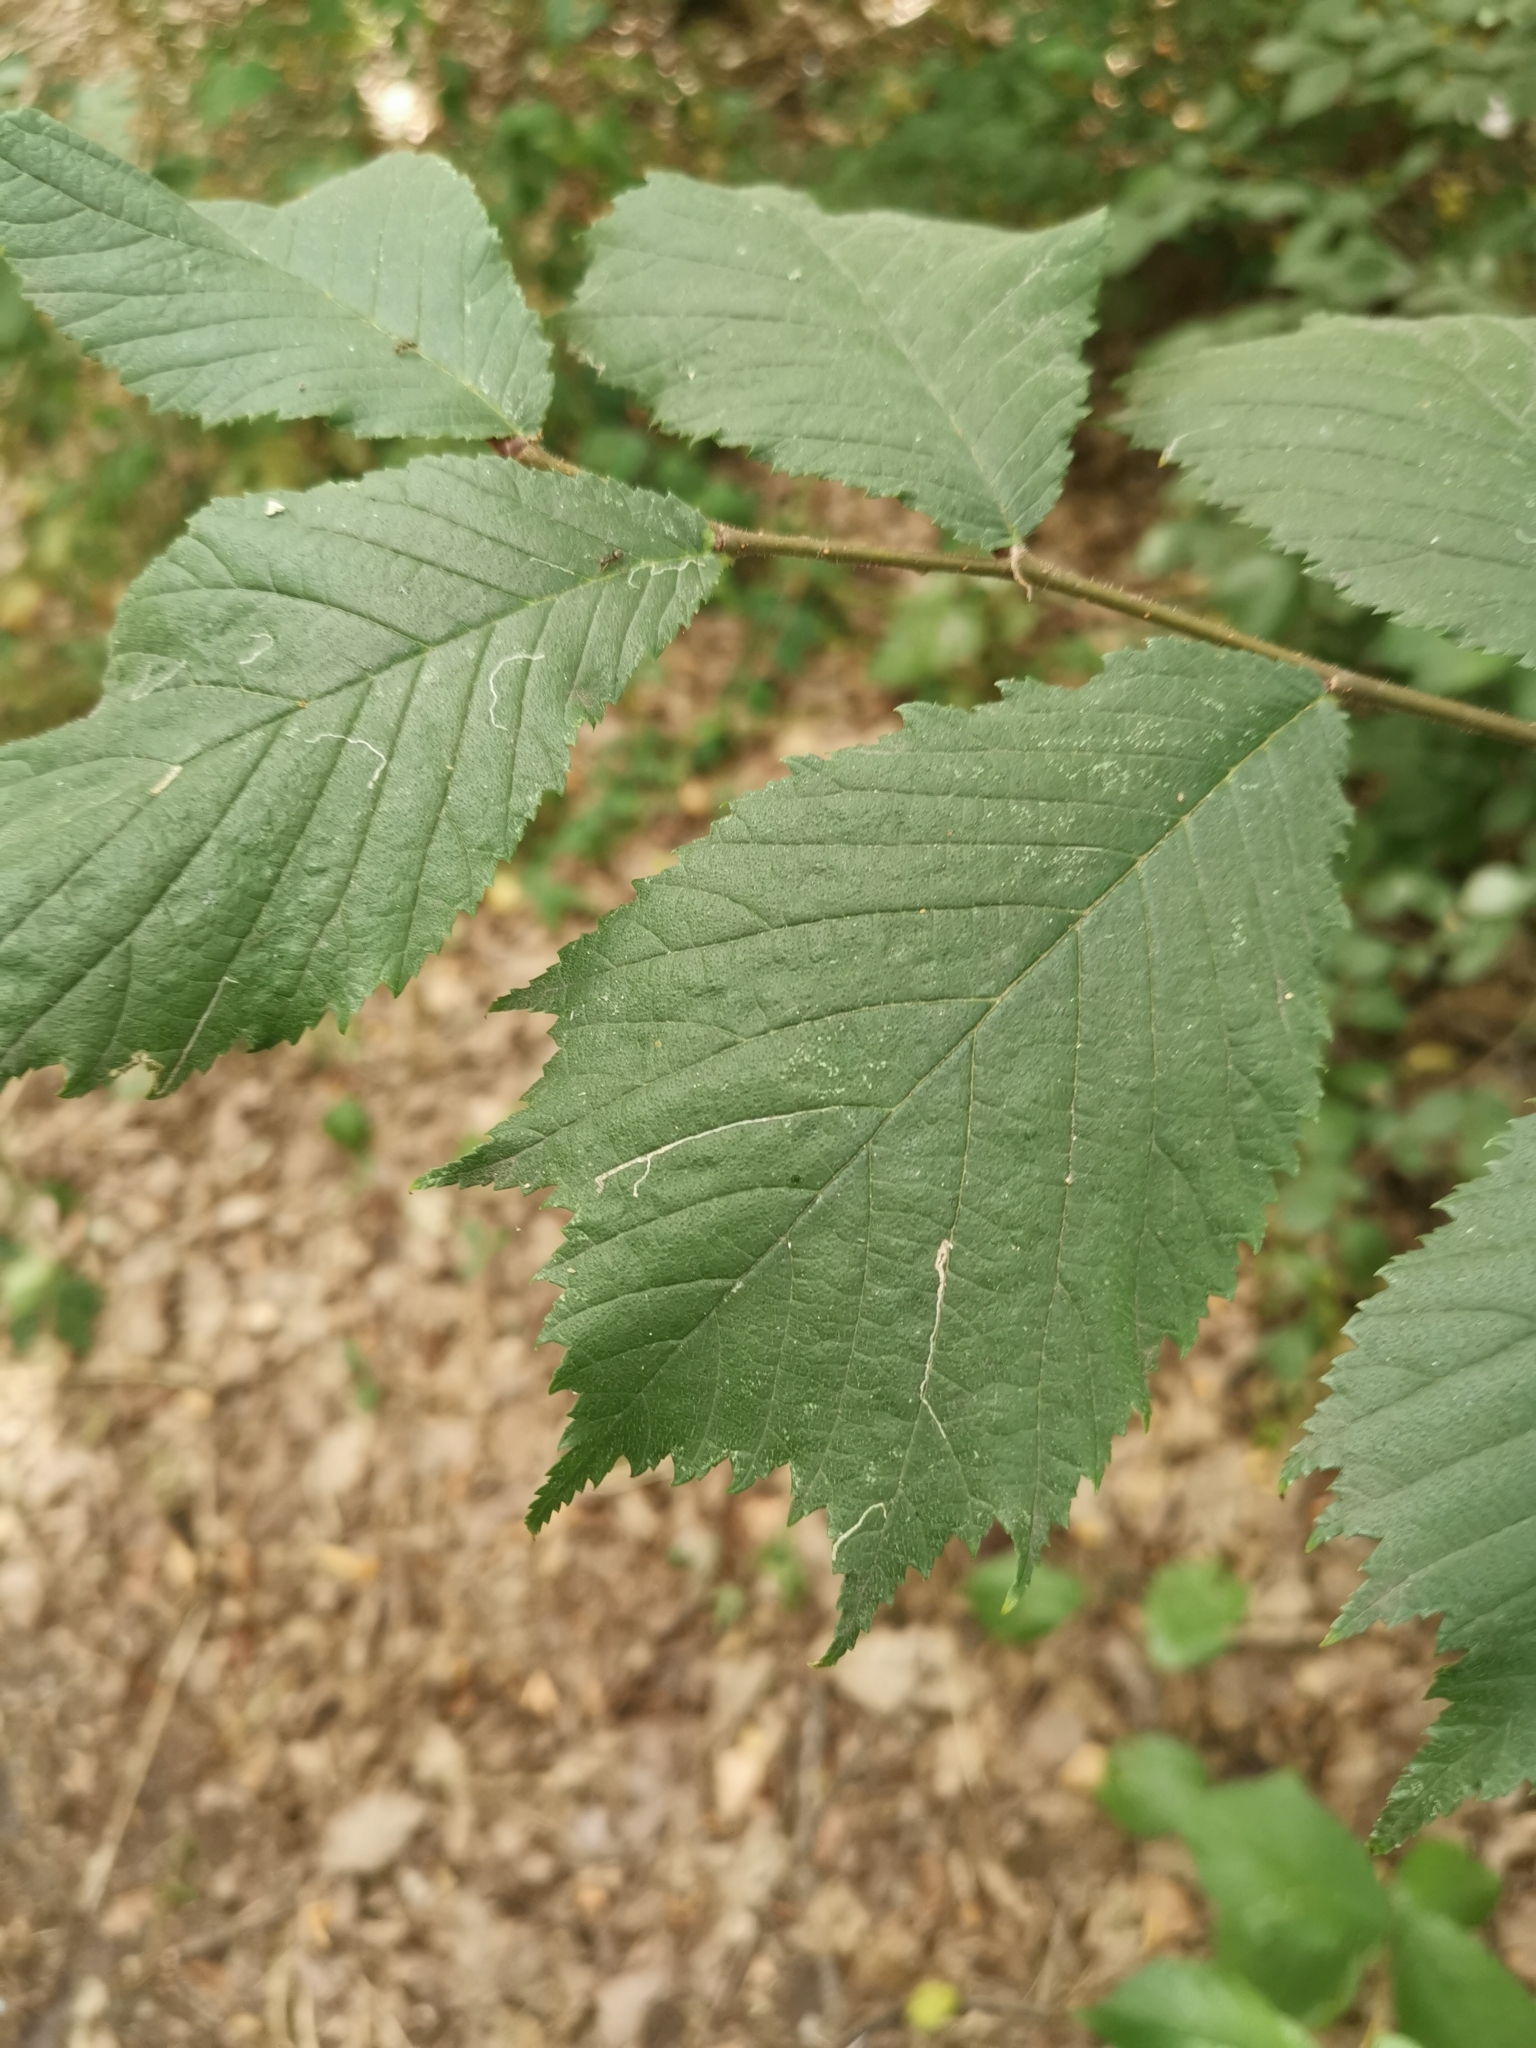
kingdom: Plantae
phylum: Tracheophyta
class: Magnoliopsida
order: Rosales
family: Ulmaceae
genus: Ulmus
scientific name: Ulmus glabra
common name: Wych elm
